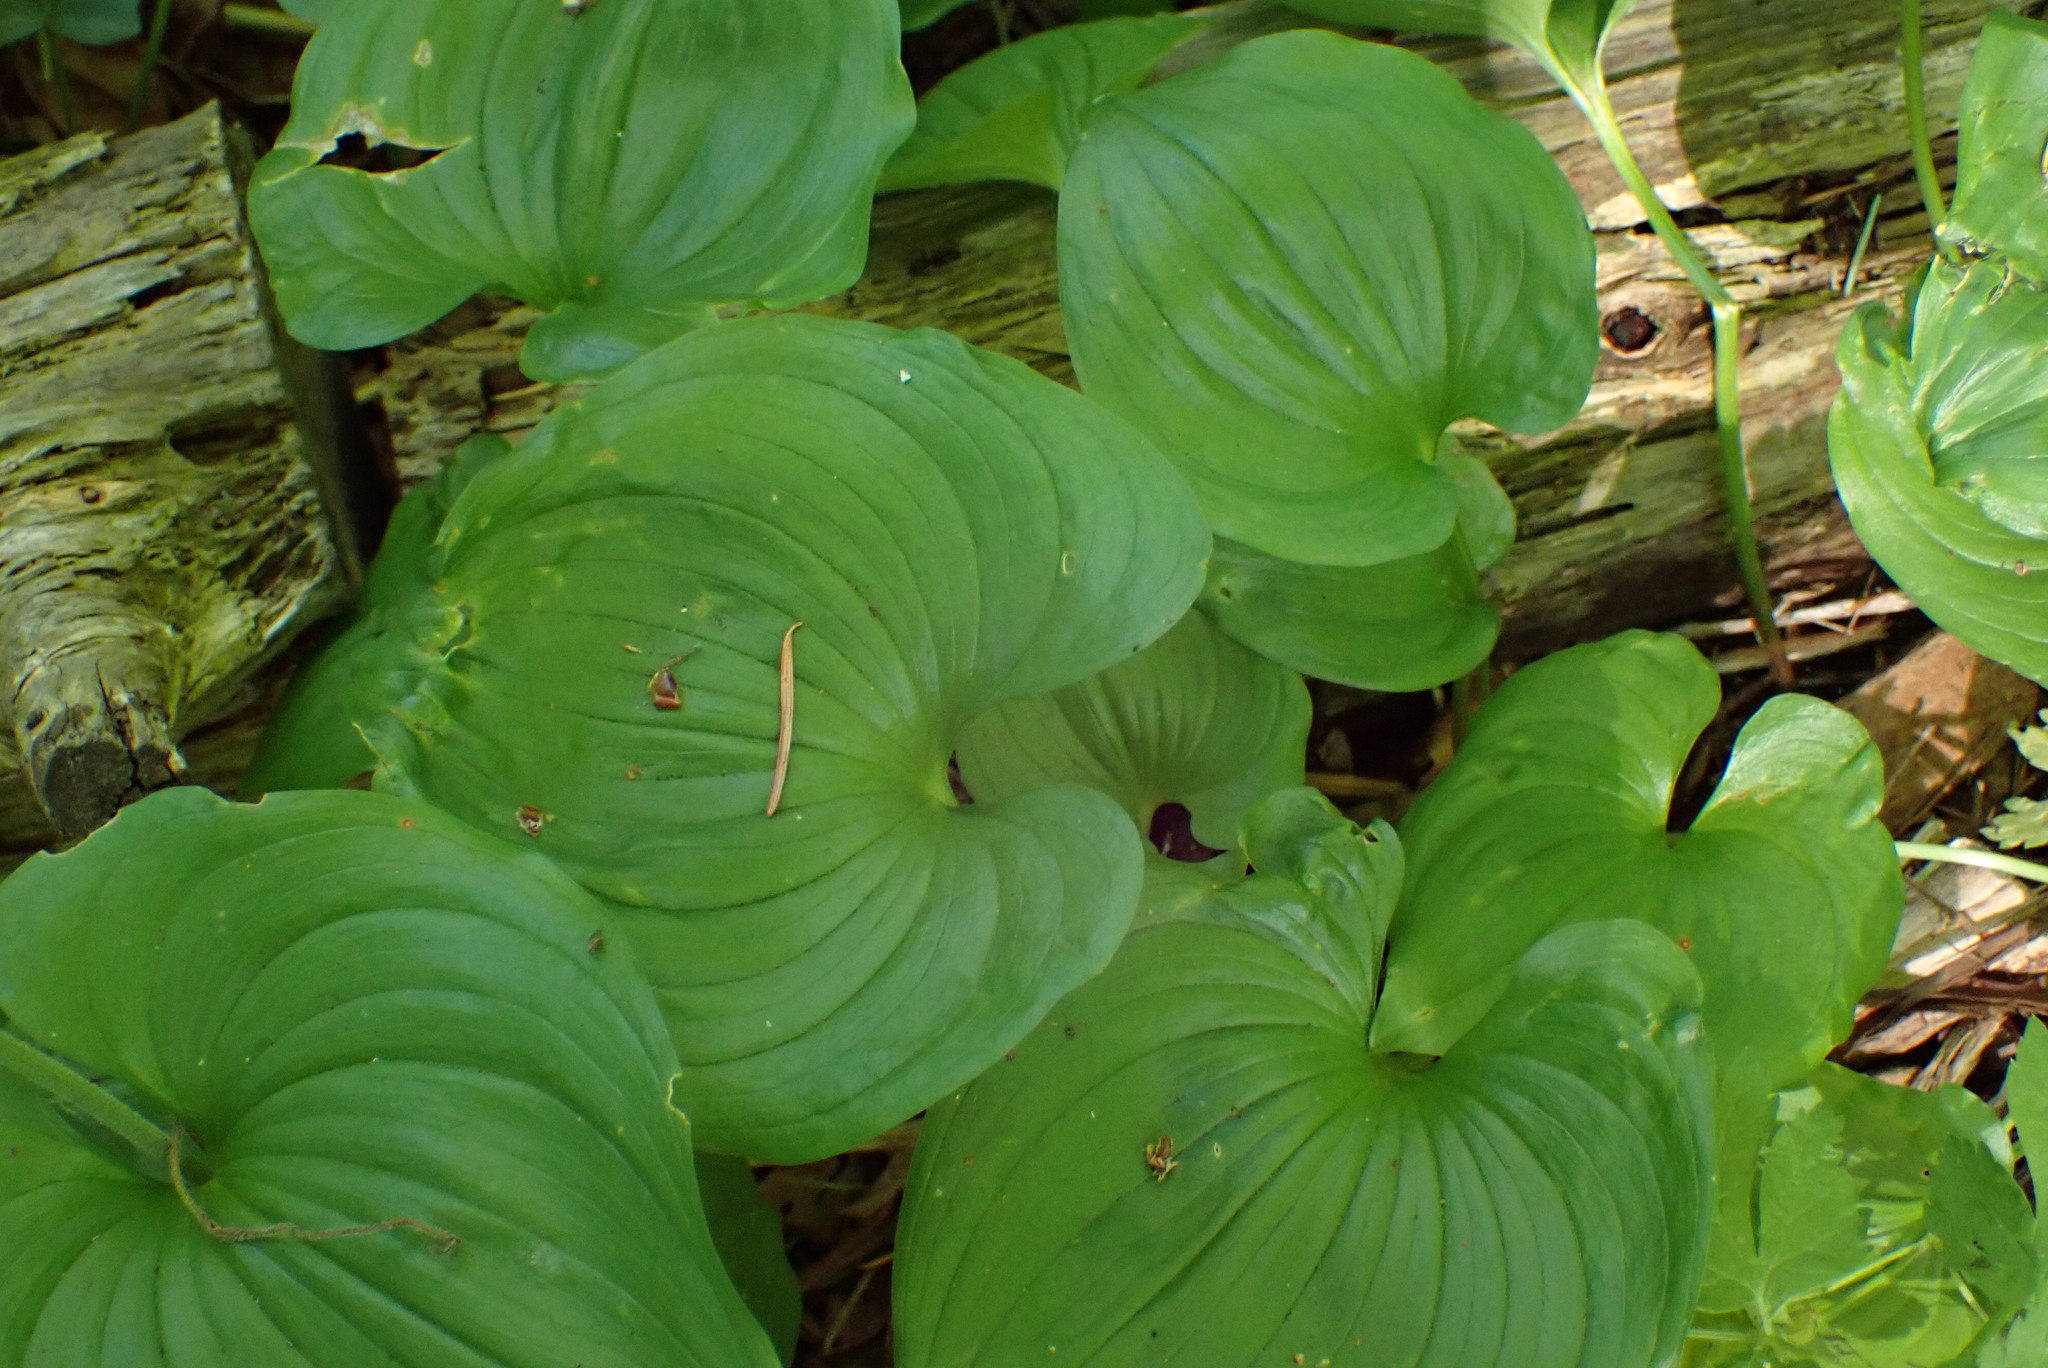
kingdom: Plantae
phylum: Tracheophyta
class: Liliopsida
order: Asparagales
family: Asparagaceae
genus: Maianthemum
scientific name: Maianthemum dilatatum
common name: False lily-of-the-valley
